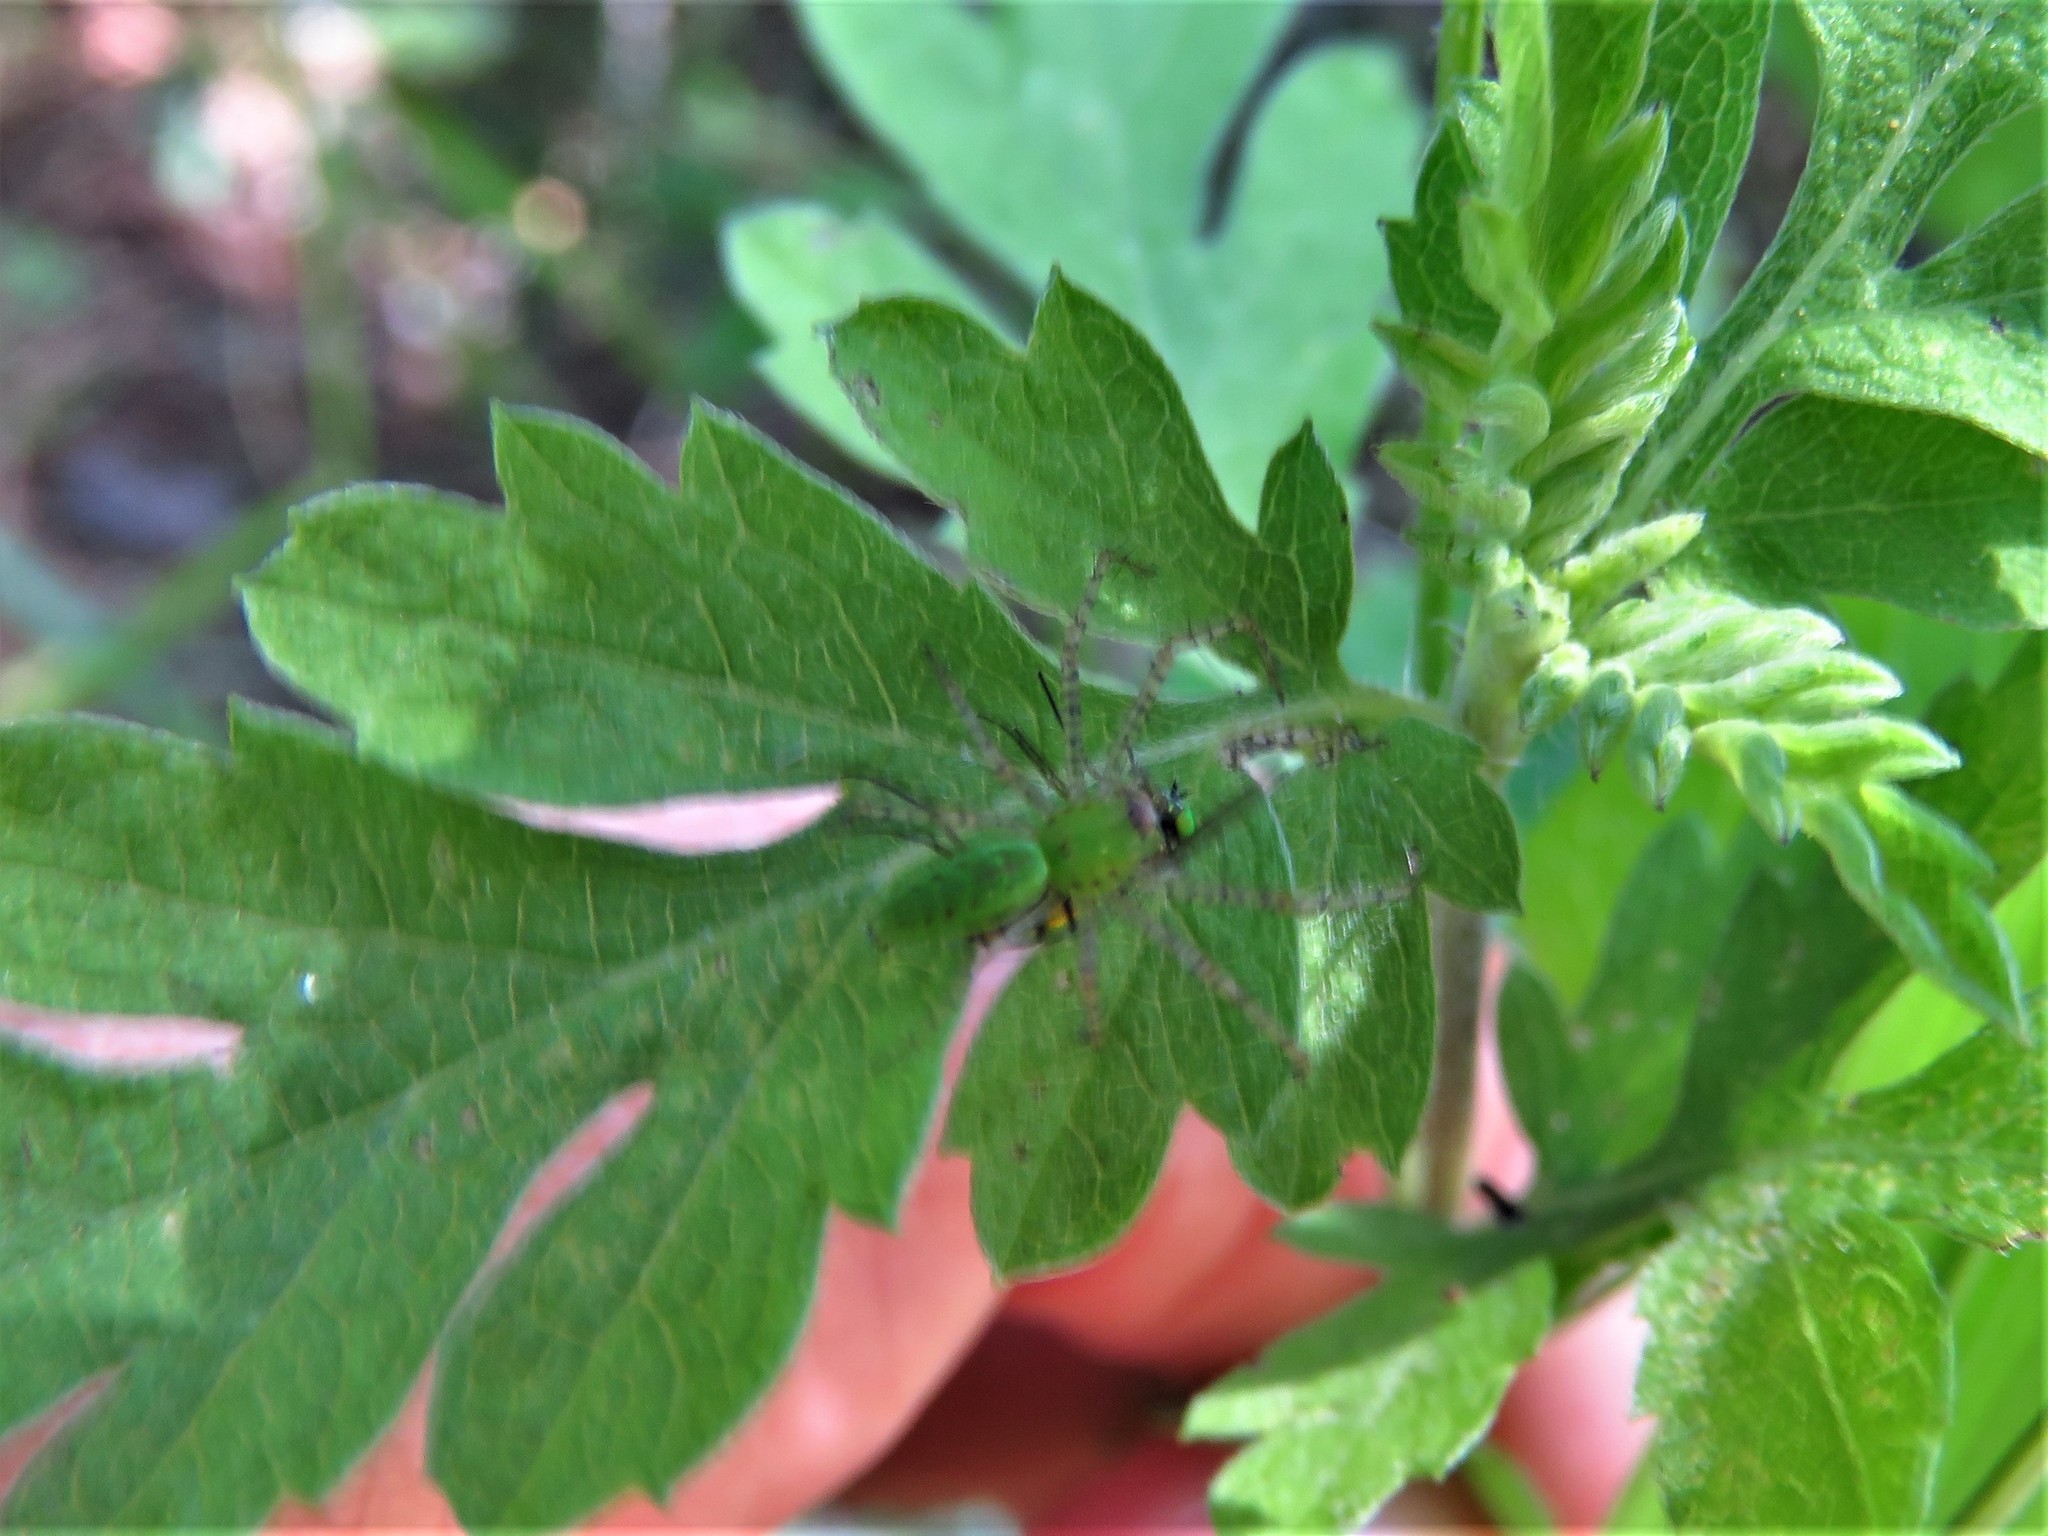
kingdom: Animalia
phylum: Arthropoda
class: Arachnida
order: Araneae
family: Oxyopidae
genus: Peucetia
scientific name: Peucetia viridans
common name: Lynx spiders
